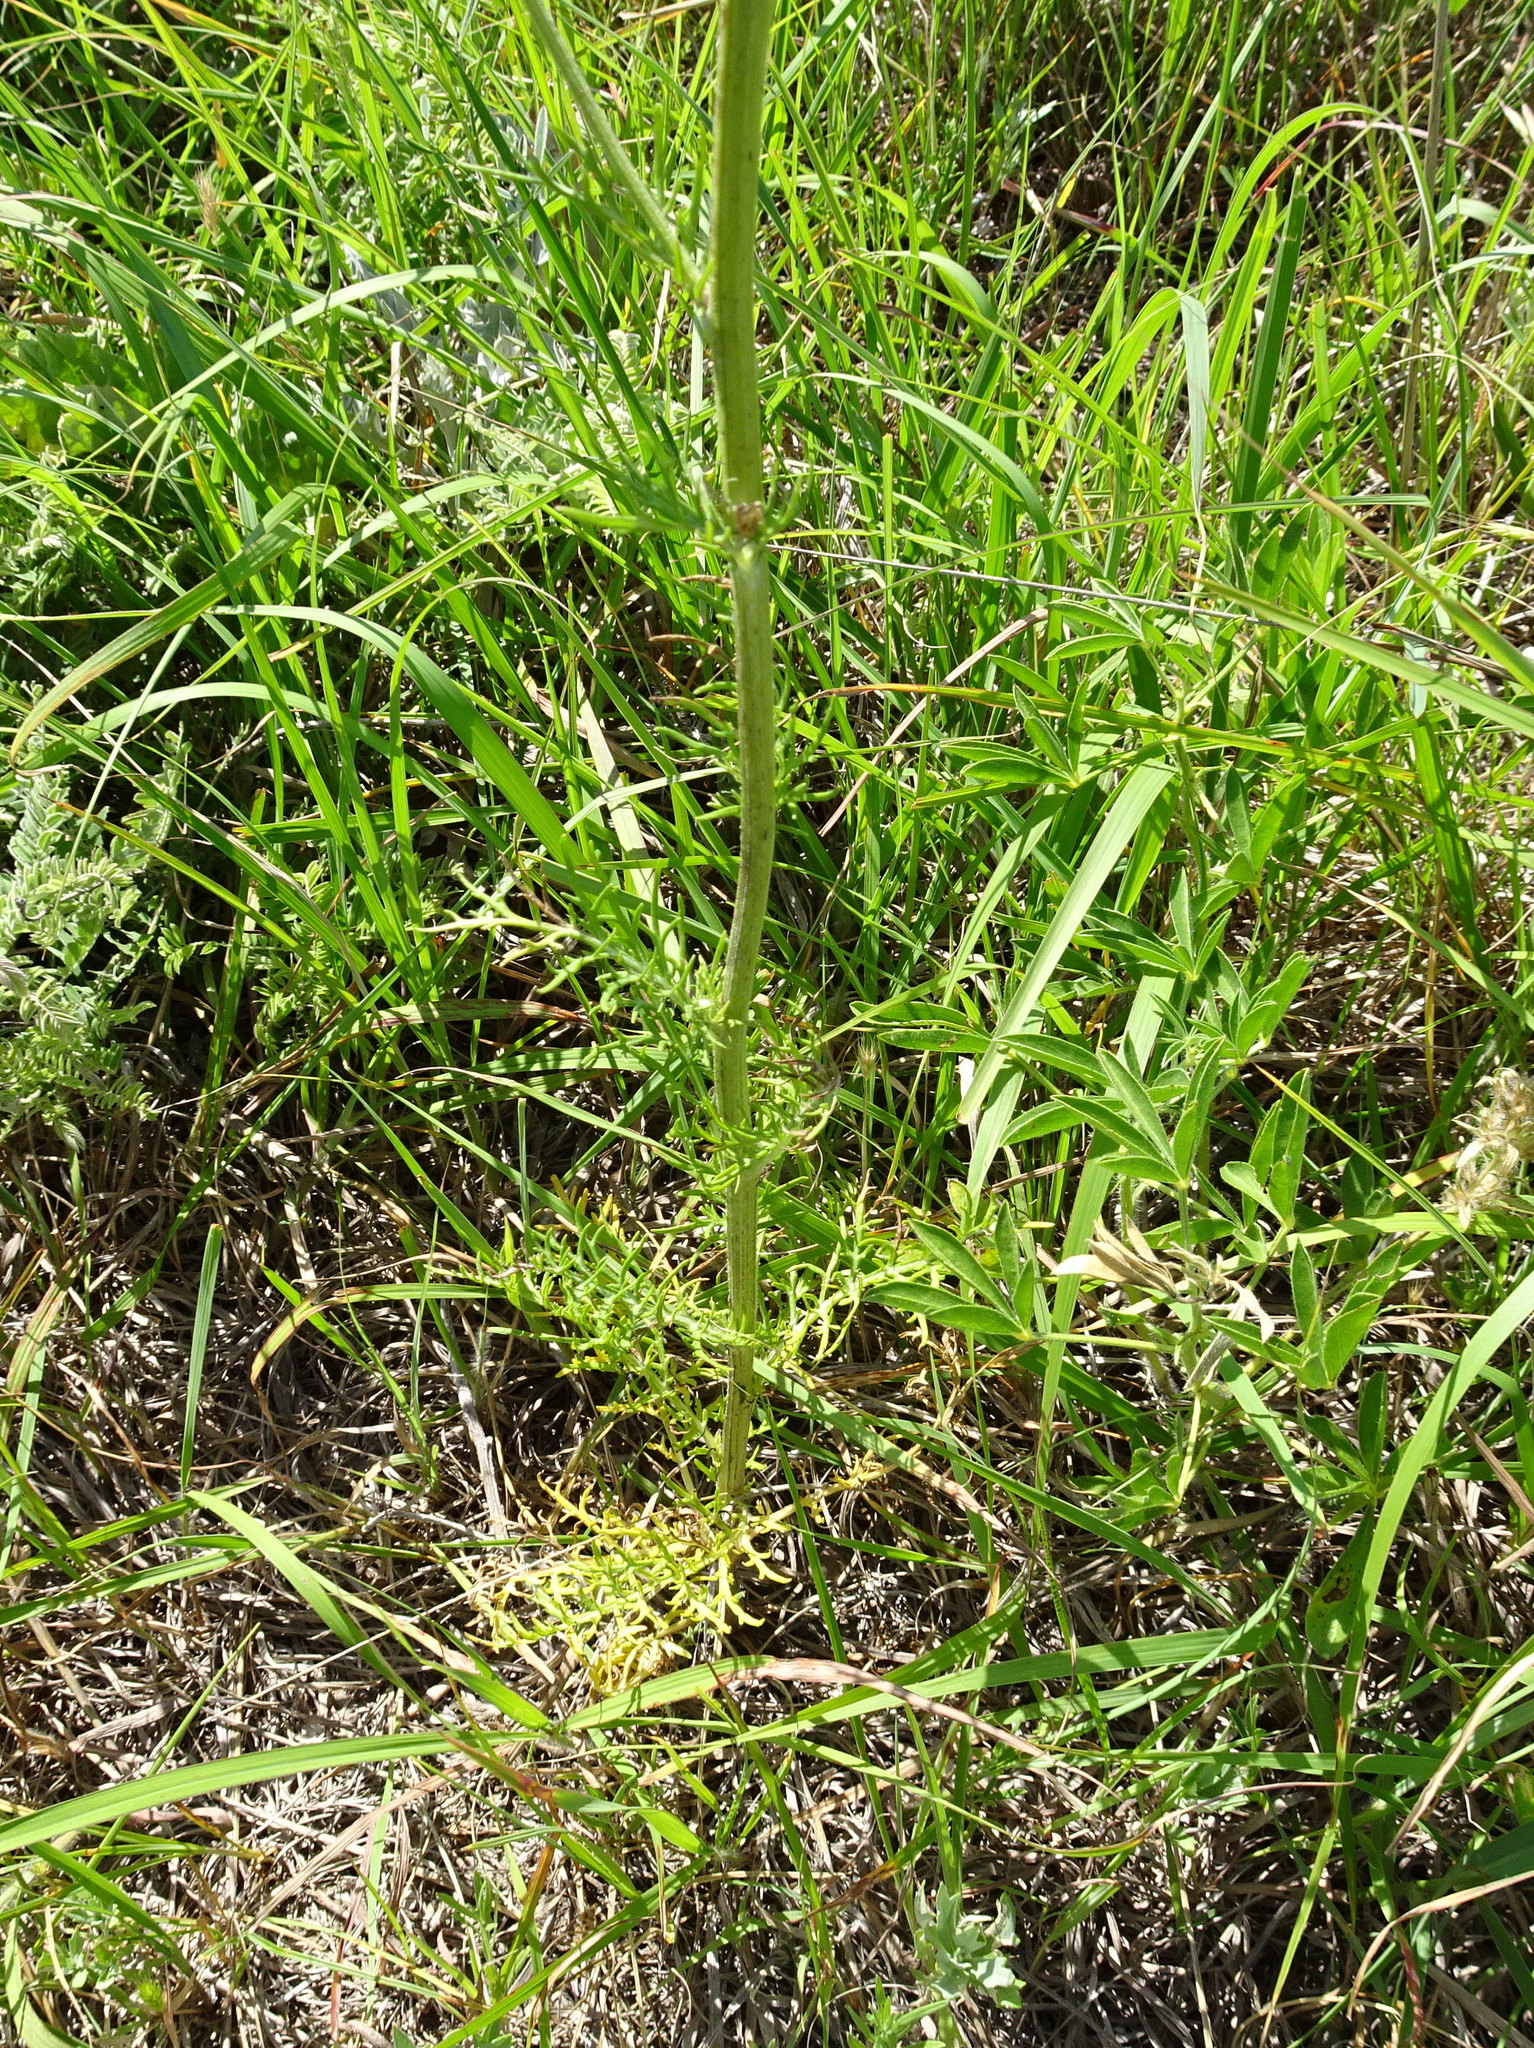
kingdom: Plantae
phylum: Tracheophyta
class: Magnoliopsida
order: Asterales
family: Asteraceae
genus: Hymenopappus
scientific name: Hymenopappus scabiosaeus
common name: Carolina woollywhite
